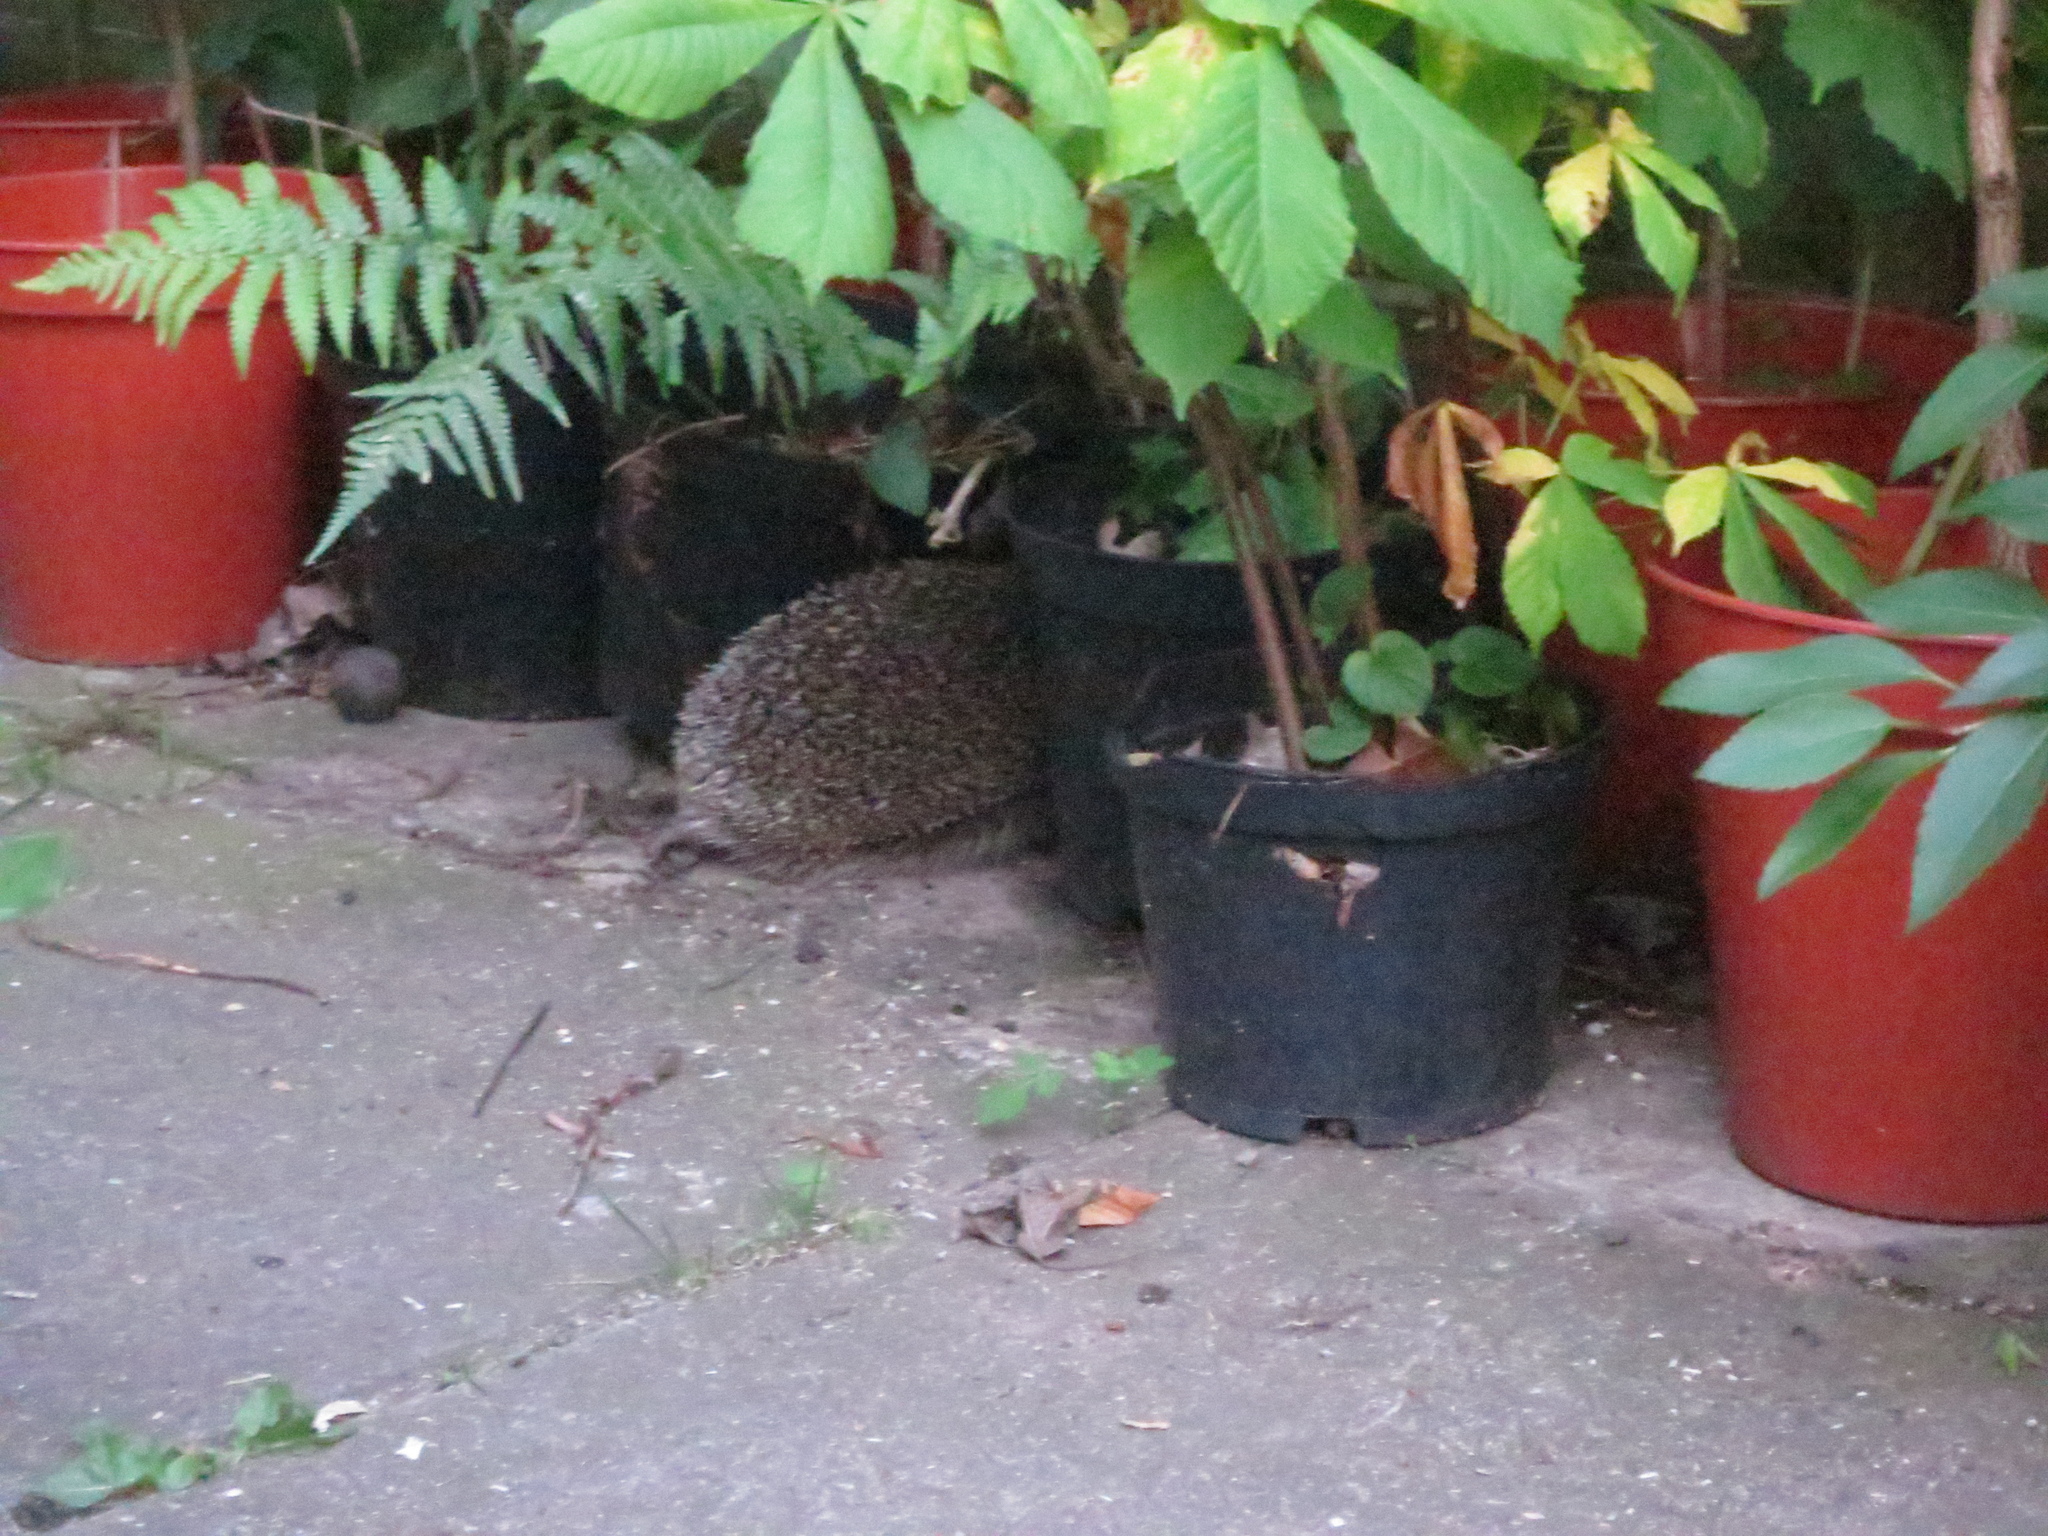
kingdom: Animalia
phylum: Chordata
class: Mammalia
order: Erinaceomorpha
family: Erinaceidae
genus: Erinaceus
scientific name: Erinaceus europaeus
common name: West european hedgehog
